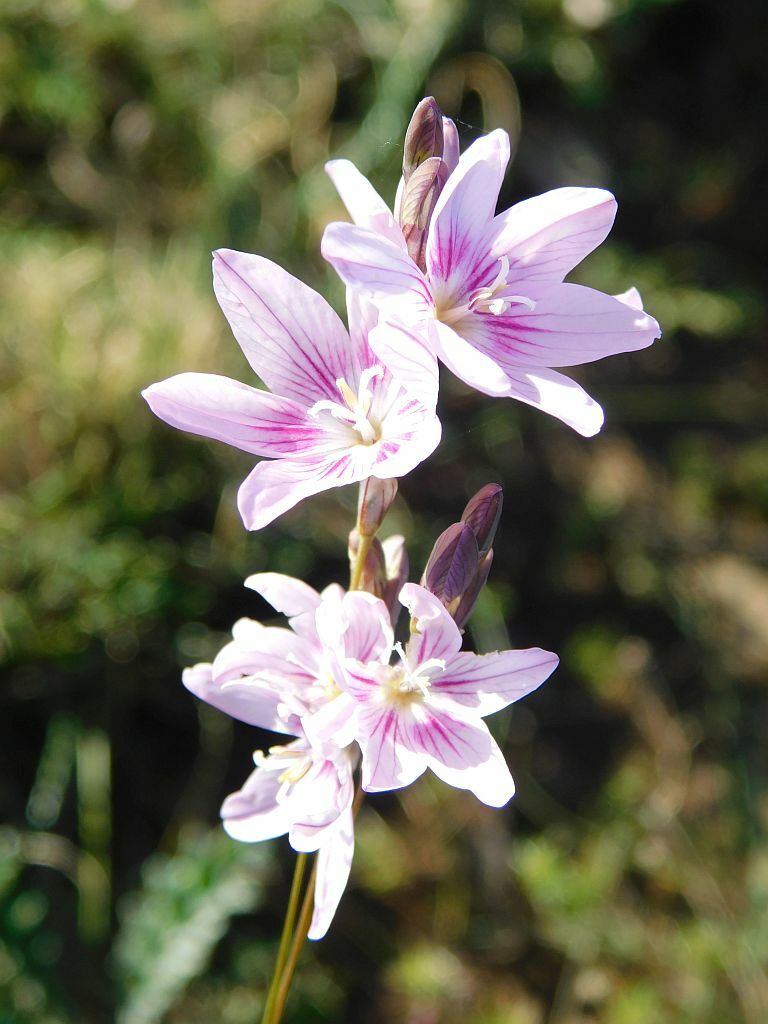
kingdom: Plantae
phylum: Tracheophyta
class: Liliopsida
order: Asparagales
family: Iridaceae
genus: Ixia
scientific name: Ixia flexuosa
